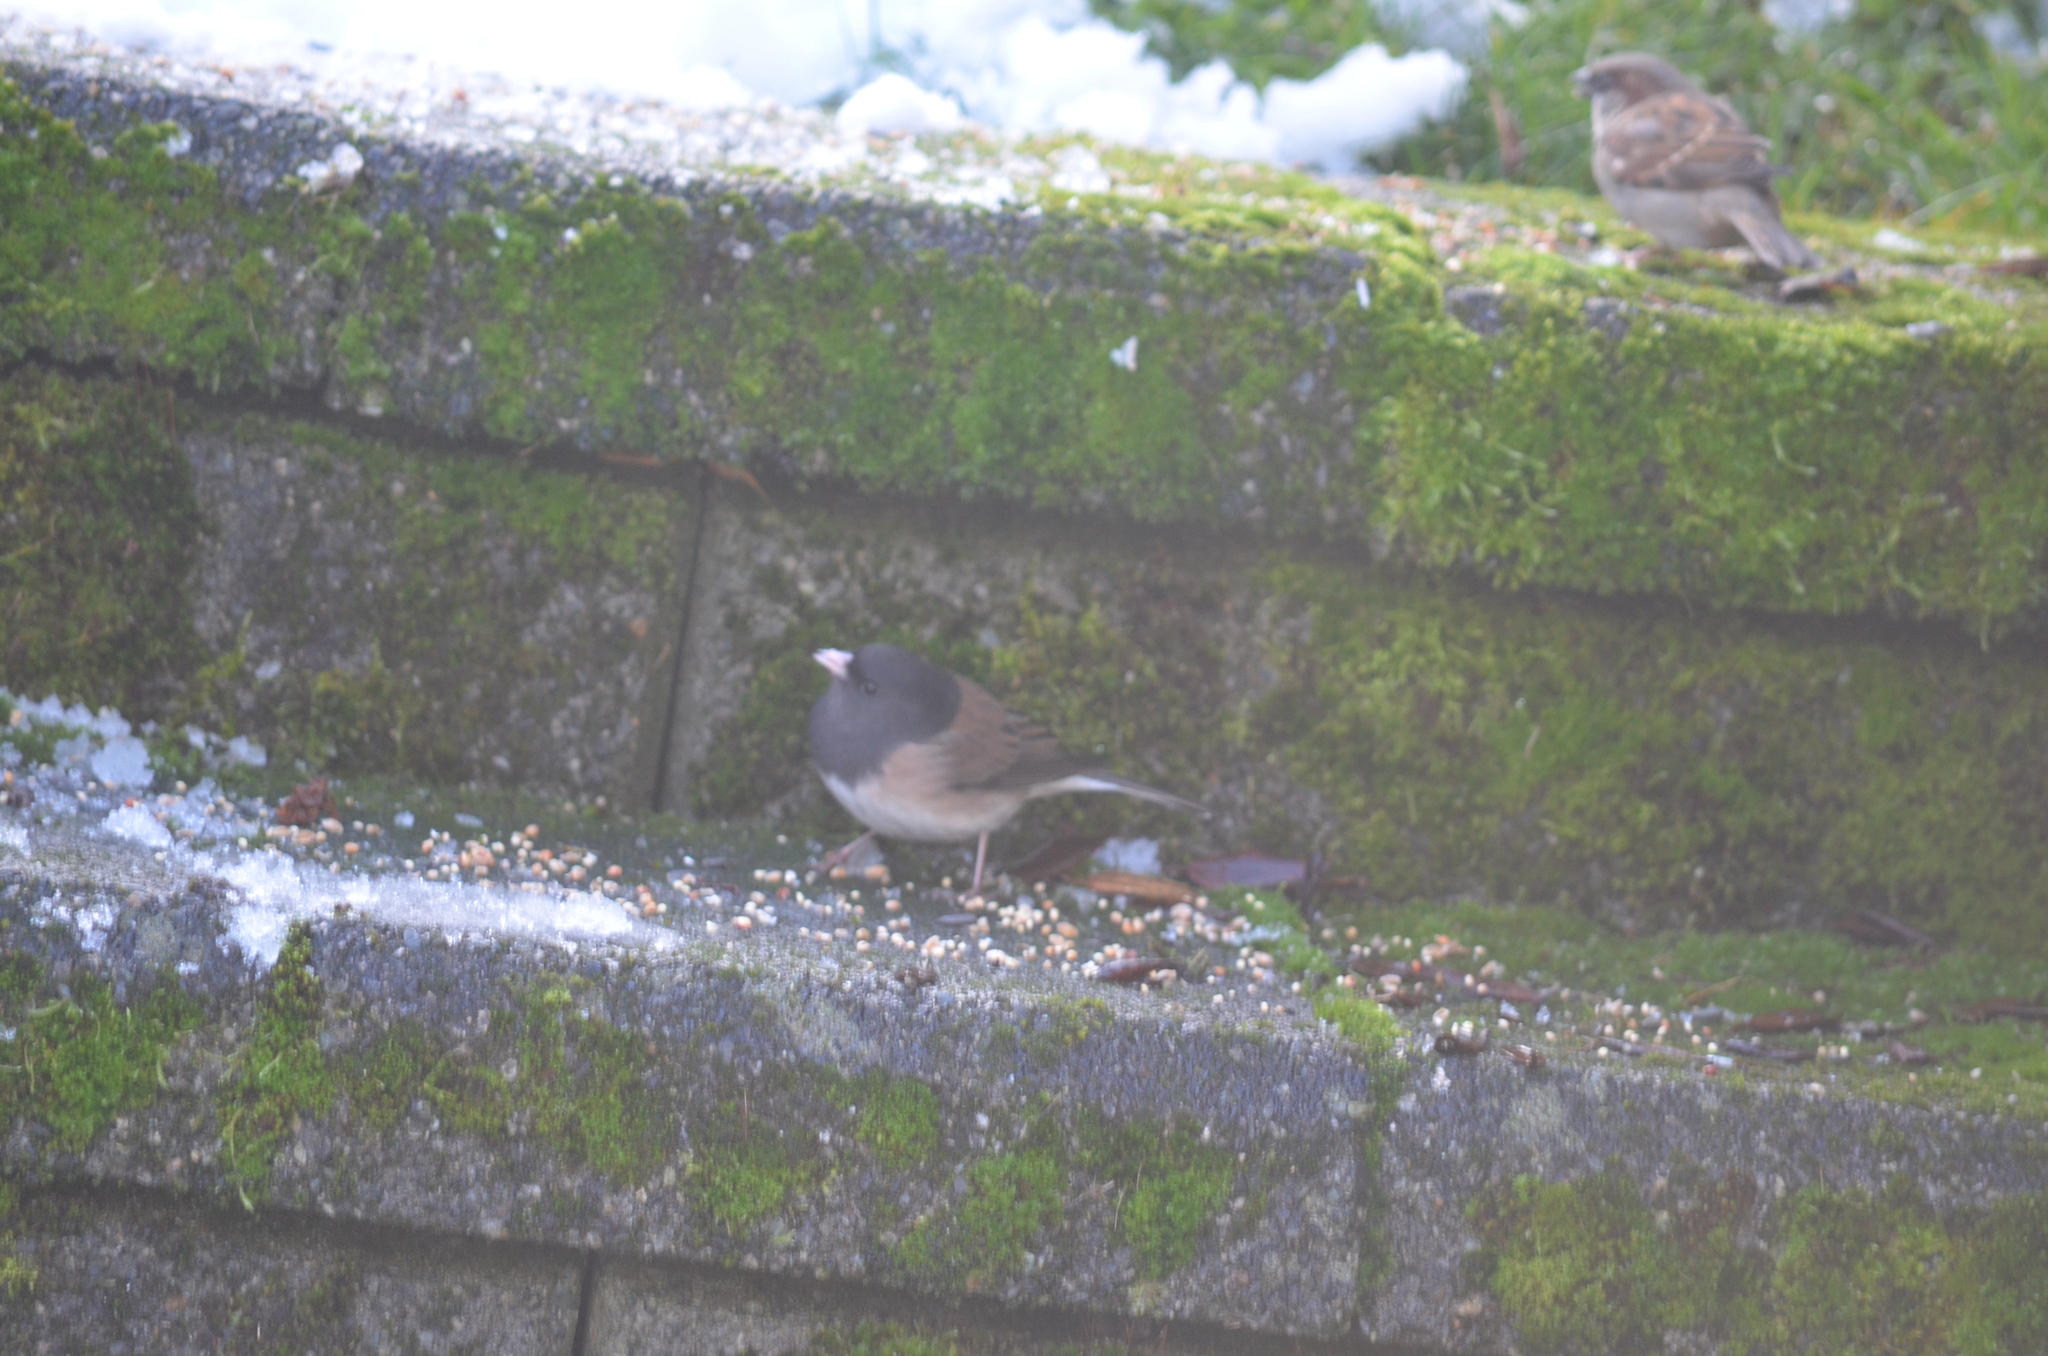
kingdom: Animalia
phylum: Chordata
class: Aves
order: Passeriformes
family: Passerellidae
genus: Junco
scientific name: Junco hyemalis
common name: Dark-eyed junco
